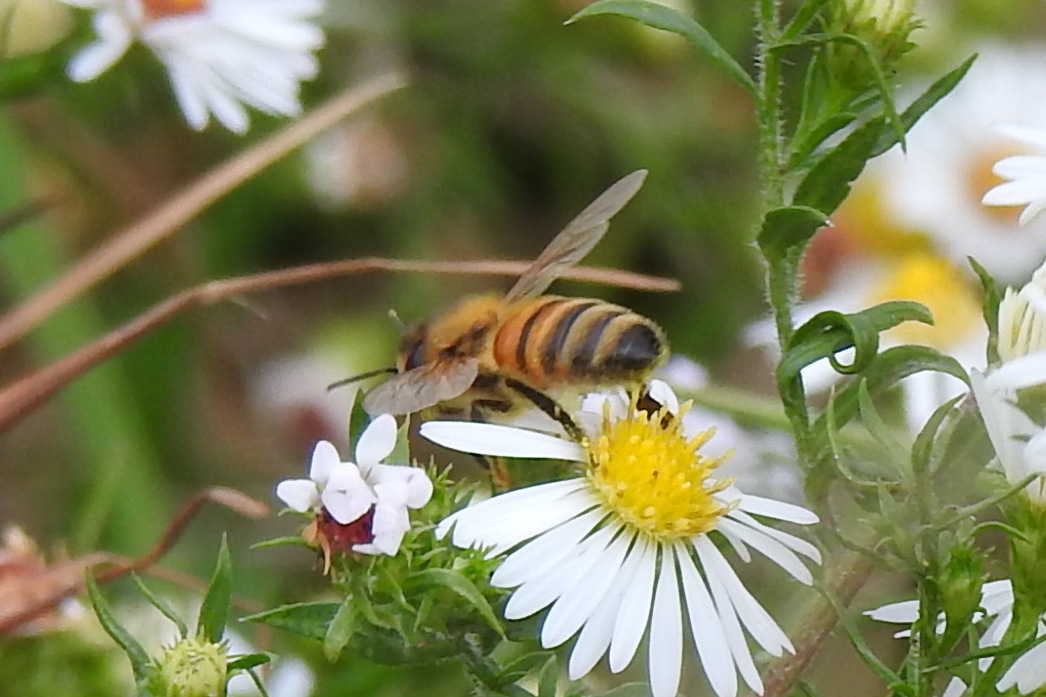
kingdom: Animalia
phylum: Arthropoda
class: Insecta
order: Hymenoptera
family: Apidae
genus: Apis
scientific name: Apis mellifera
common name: Honey bee
